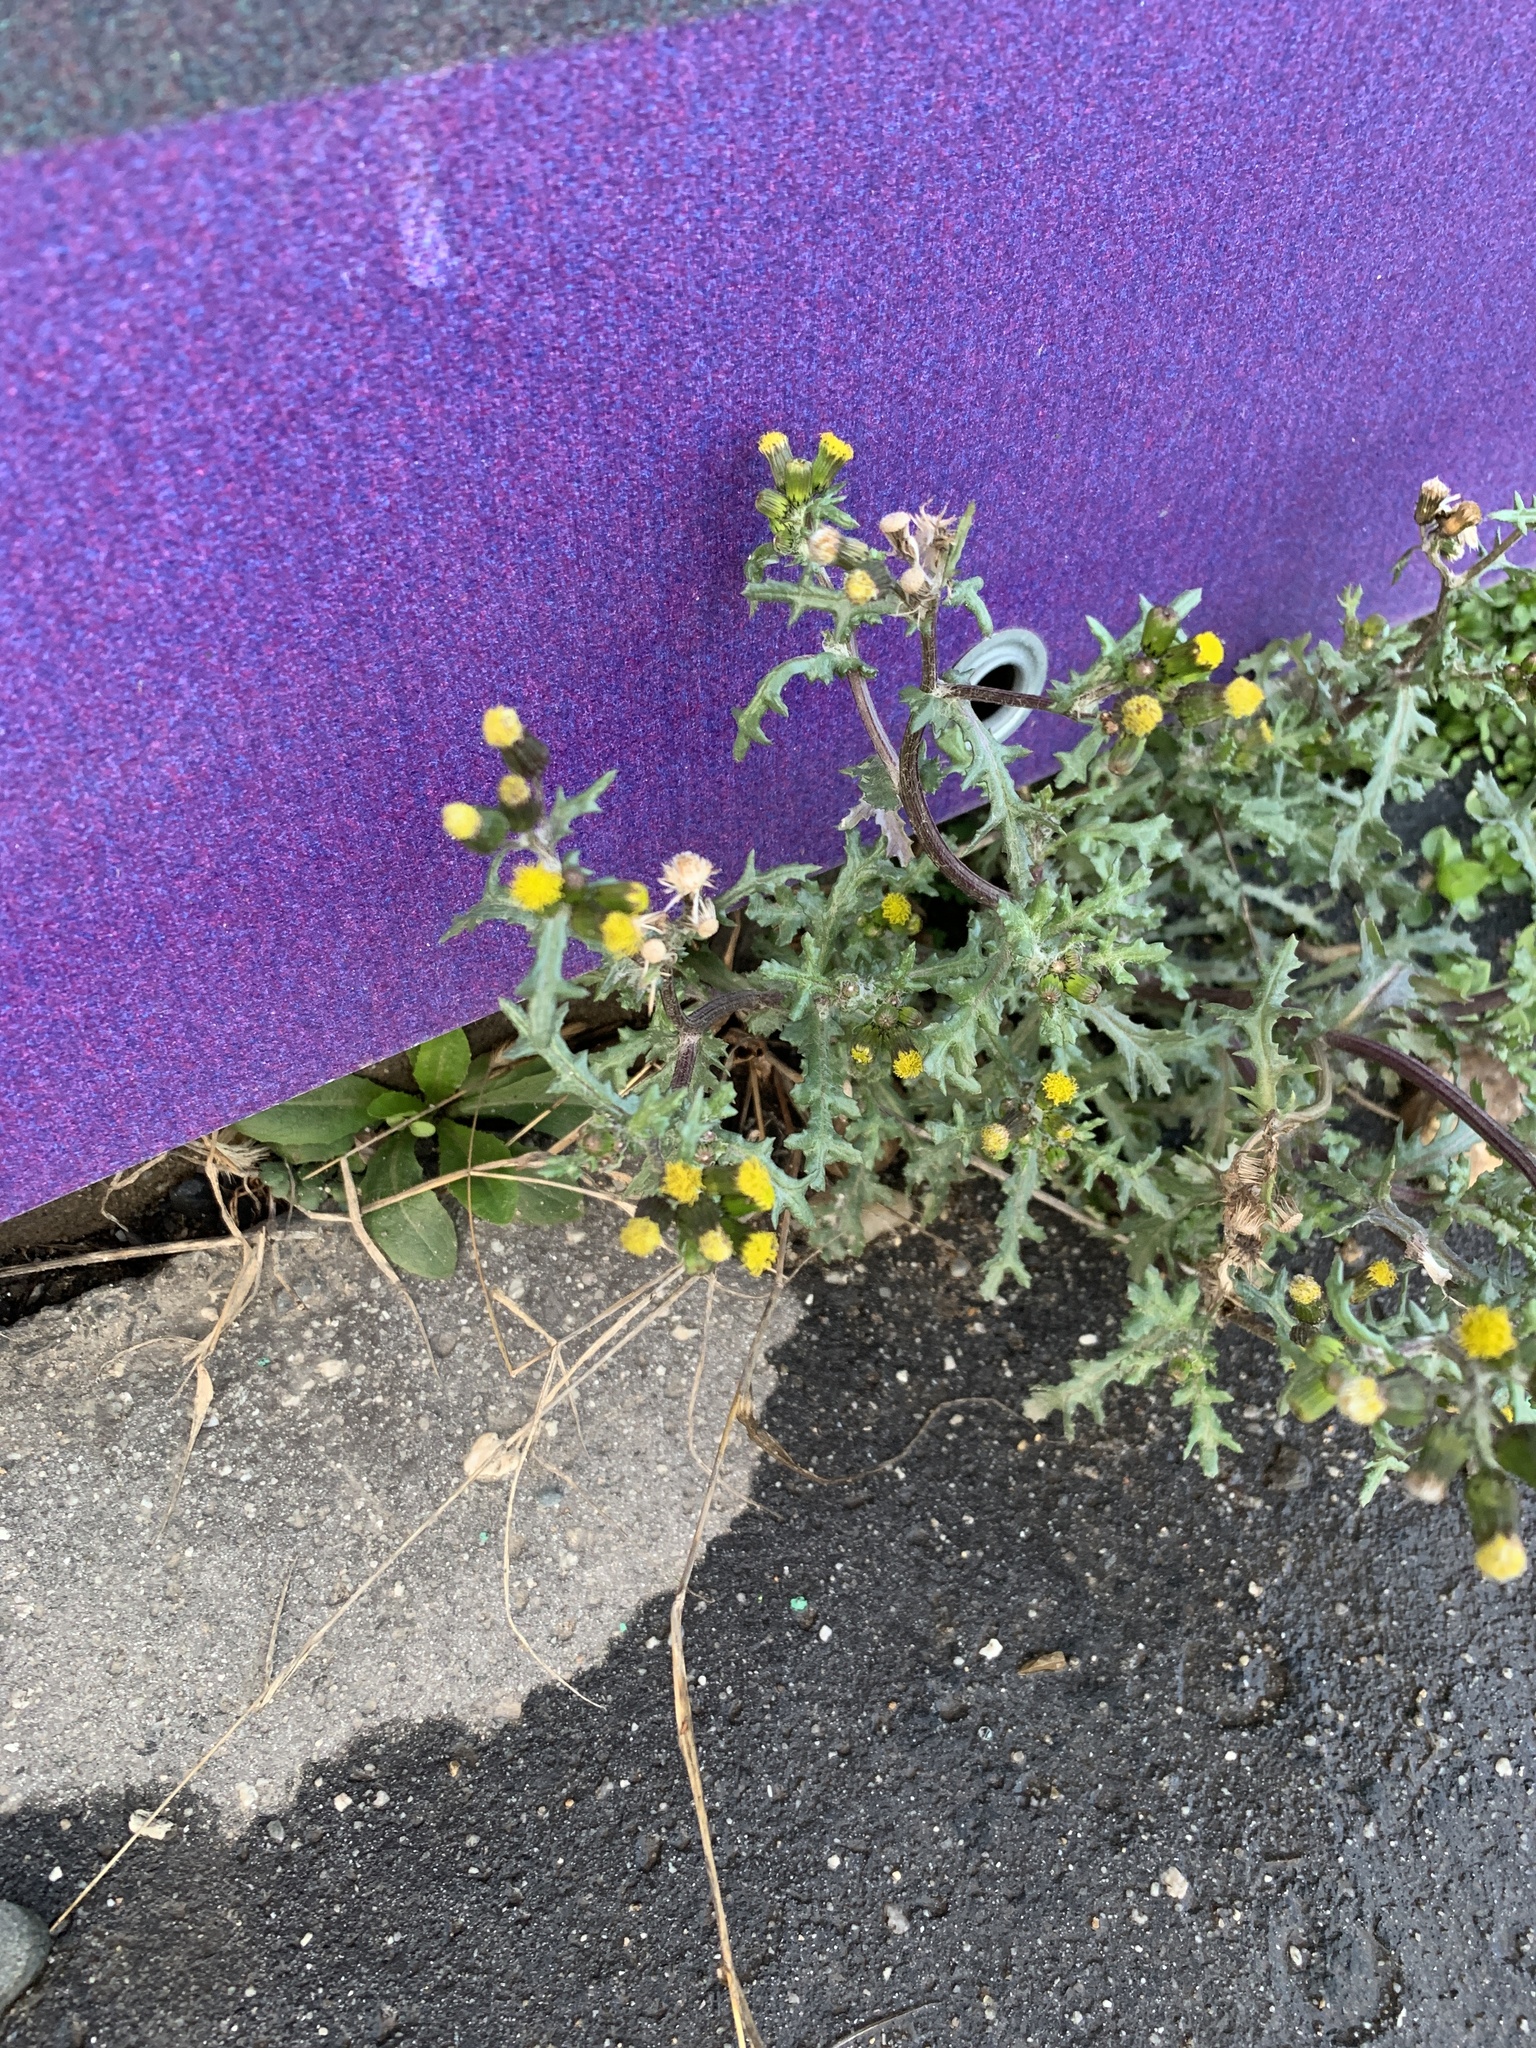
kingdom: Plantae
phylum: Tracheophyta
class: Magnoliopsida
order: Asterales
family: Asteraceae
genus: Senecio
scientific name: Senecio vulgaris
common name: Old-man-in-the-spring
